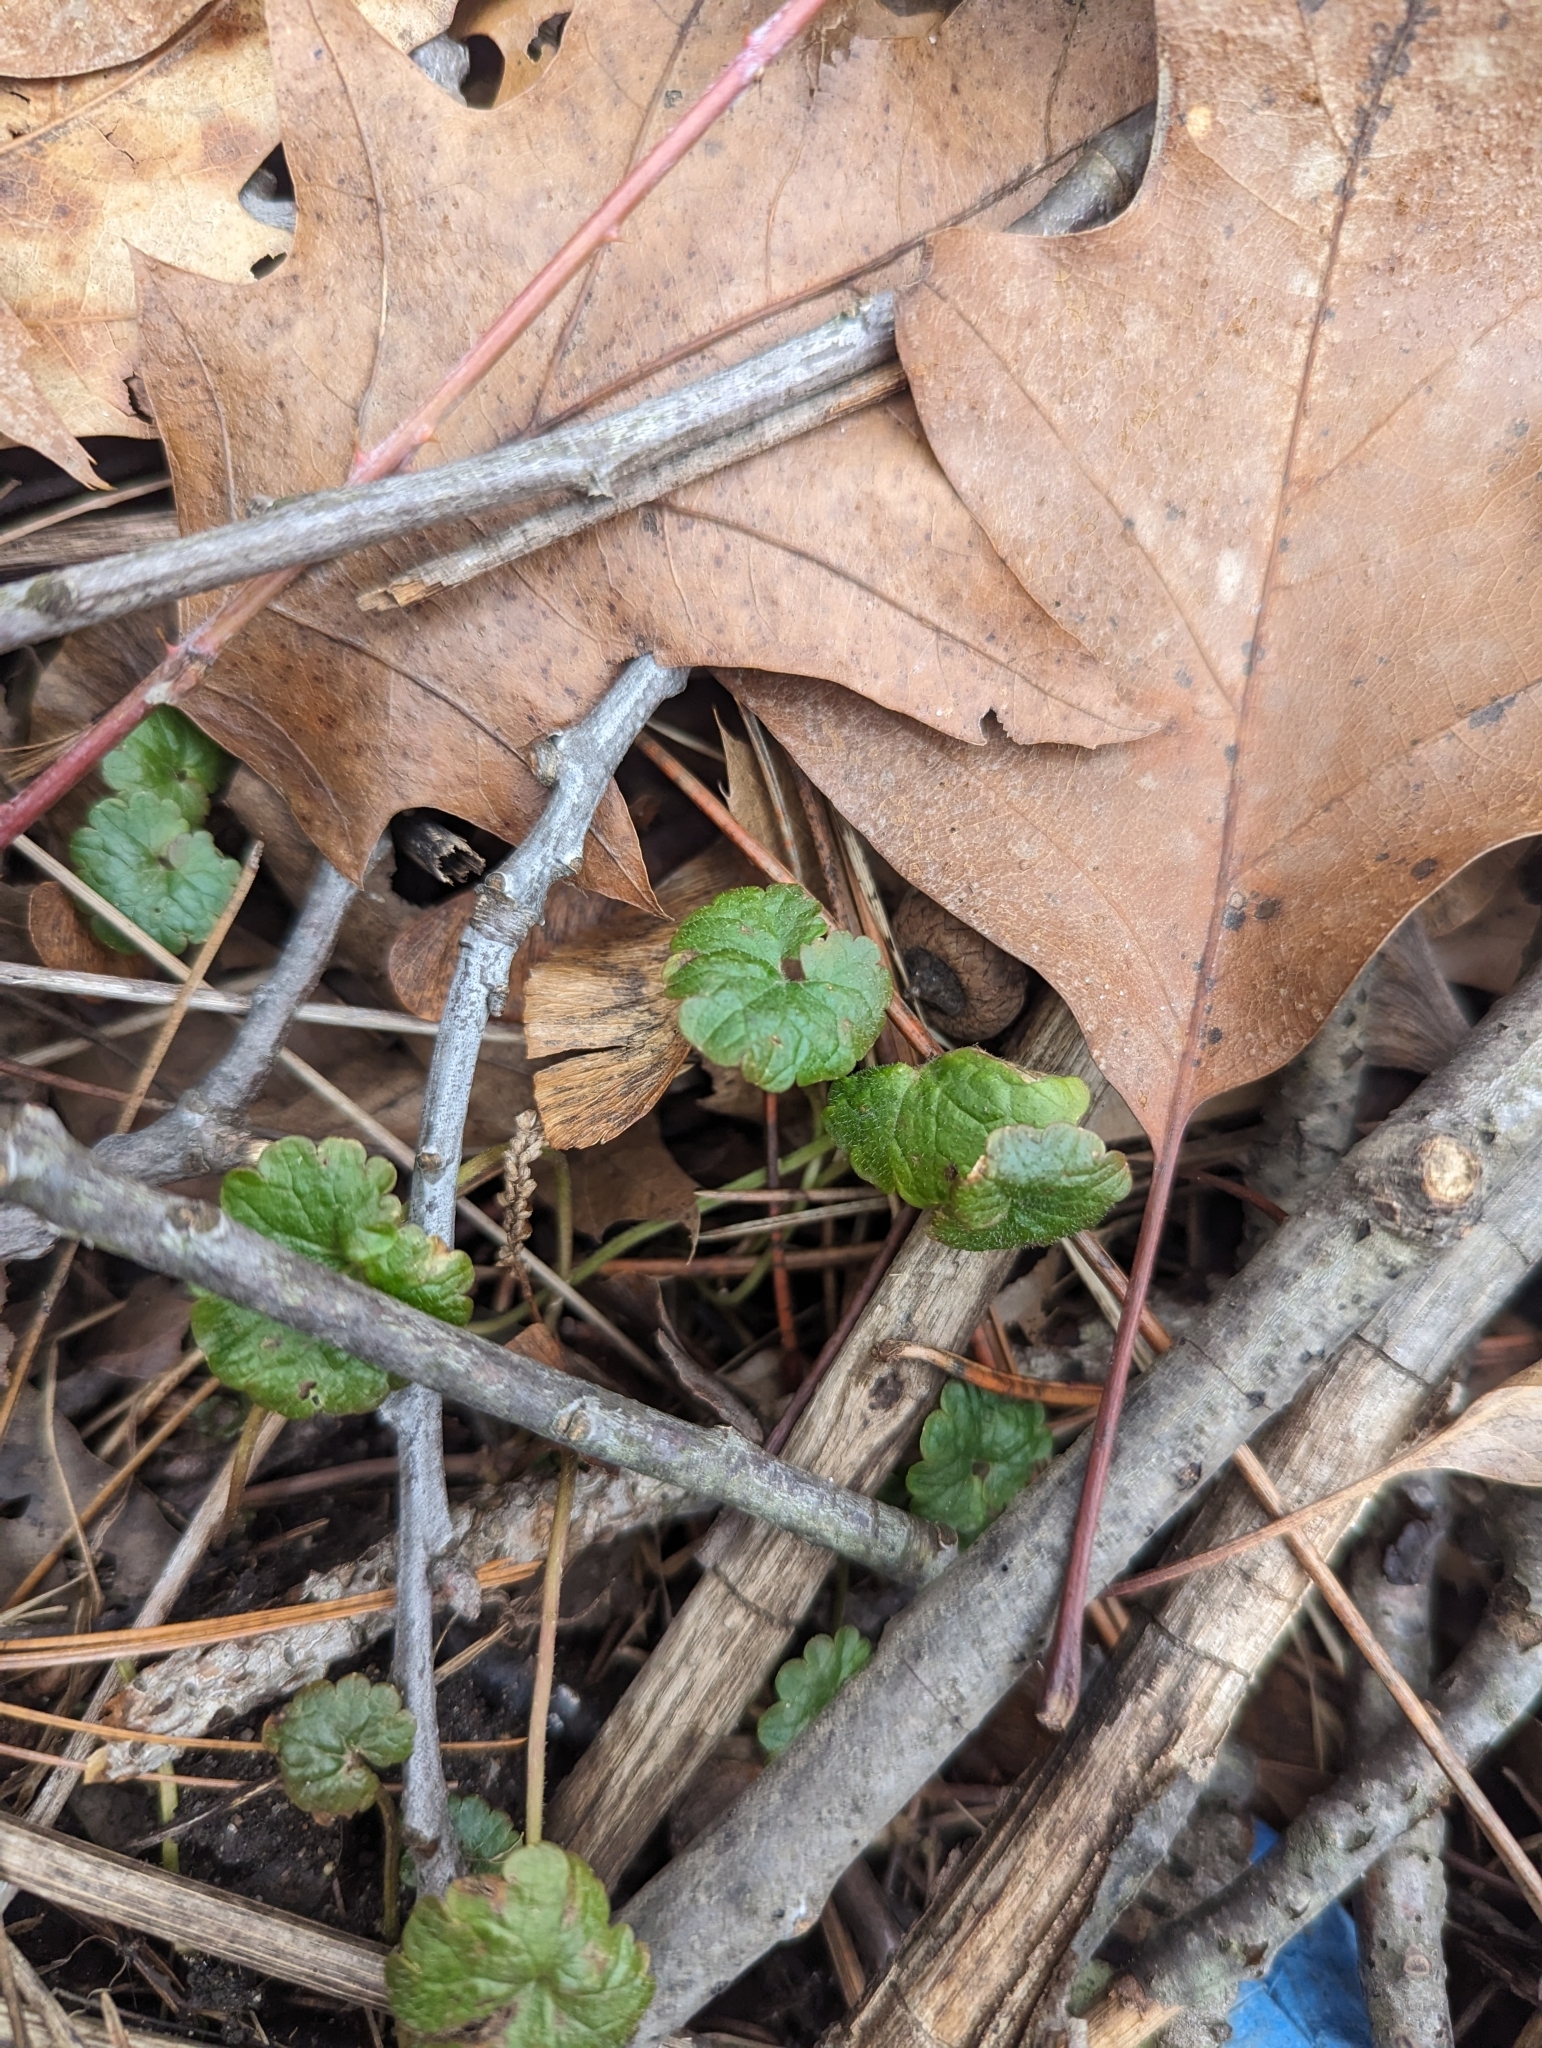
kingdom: Plantae
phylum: Tracheophyta
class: Magnoliopsida
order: Lamiales
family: Lamiaceae
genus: Glechoma
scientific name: Glechoma hederacea
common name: Ground ivy
